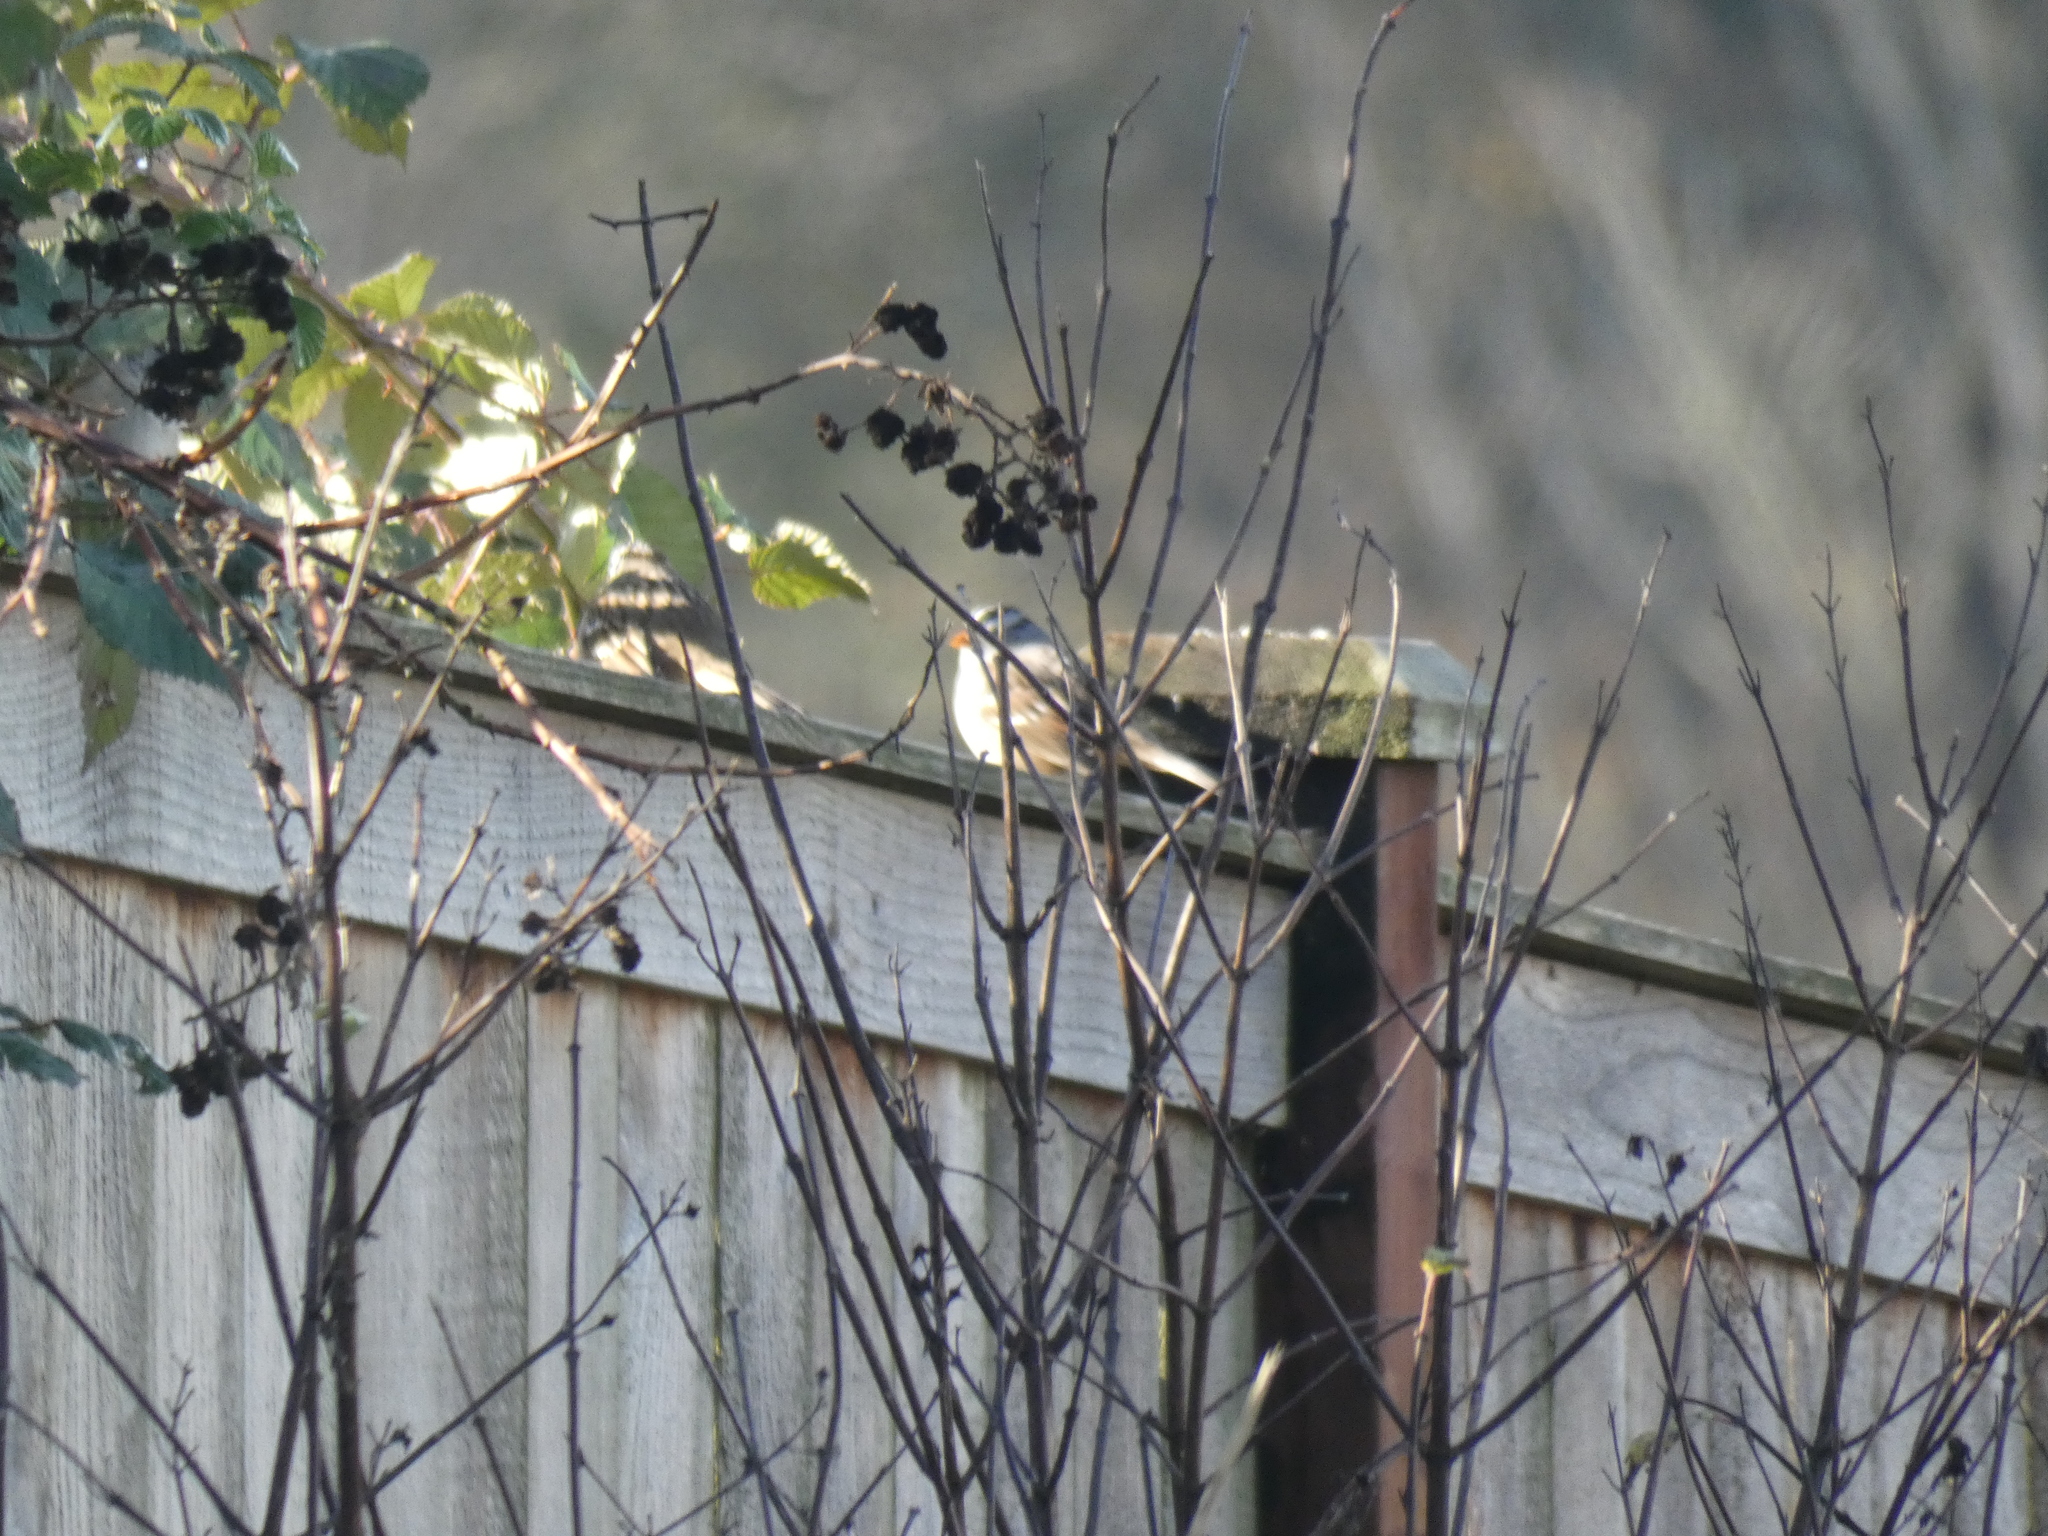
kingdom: Animalia
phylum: Chordata
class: Aves
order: Passeriformes
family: Passerellidae
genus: Zonotrichia
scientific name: Zonotrichia leucophrys
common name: White-crowned sparrow
